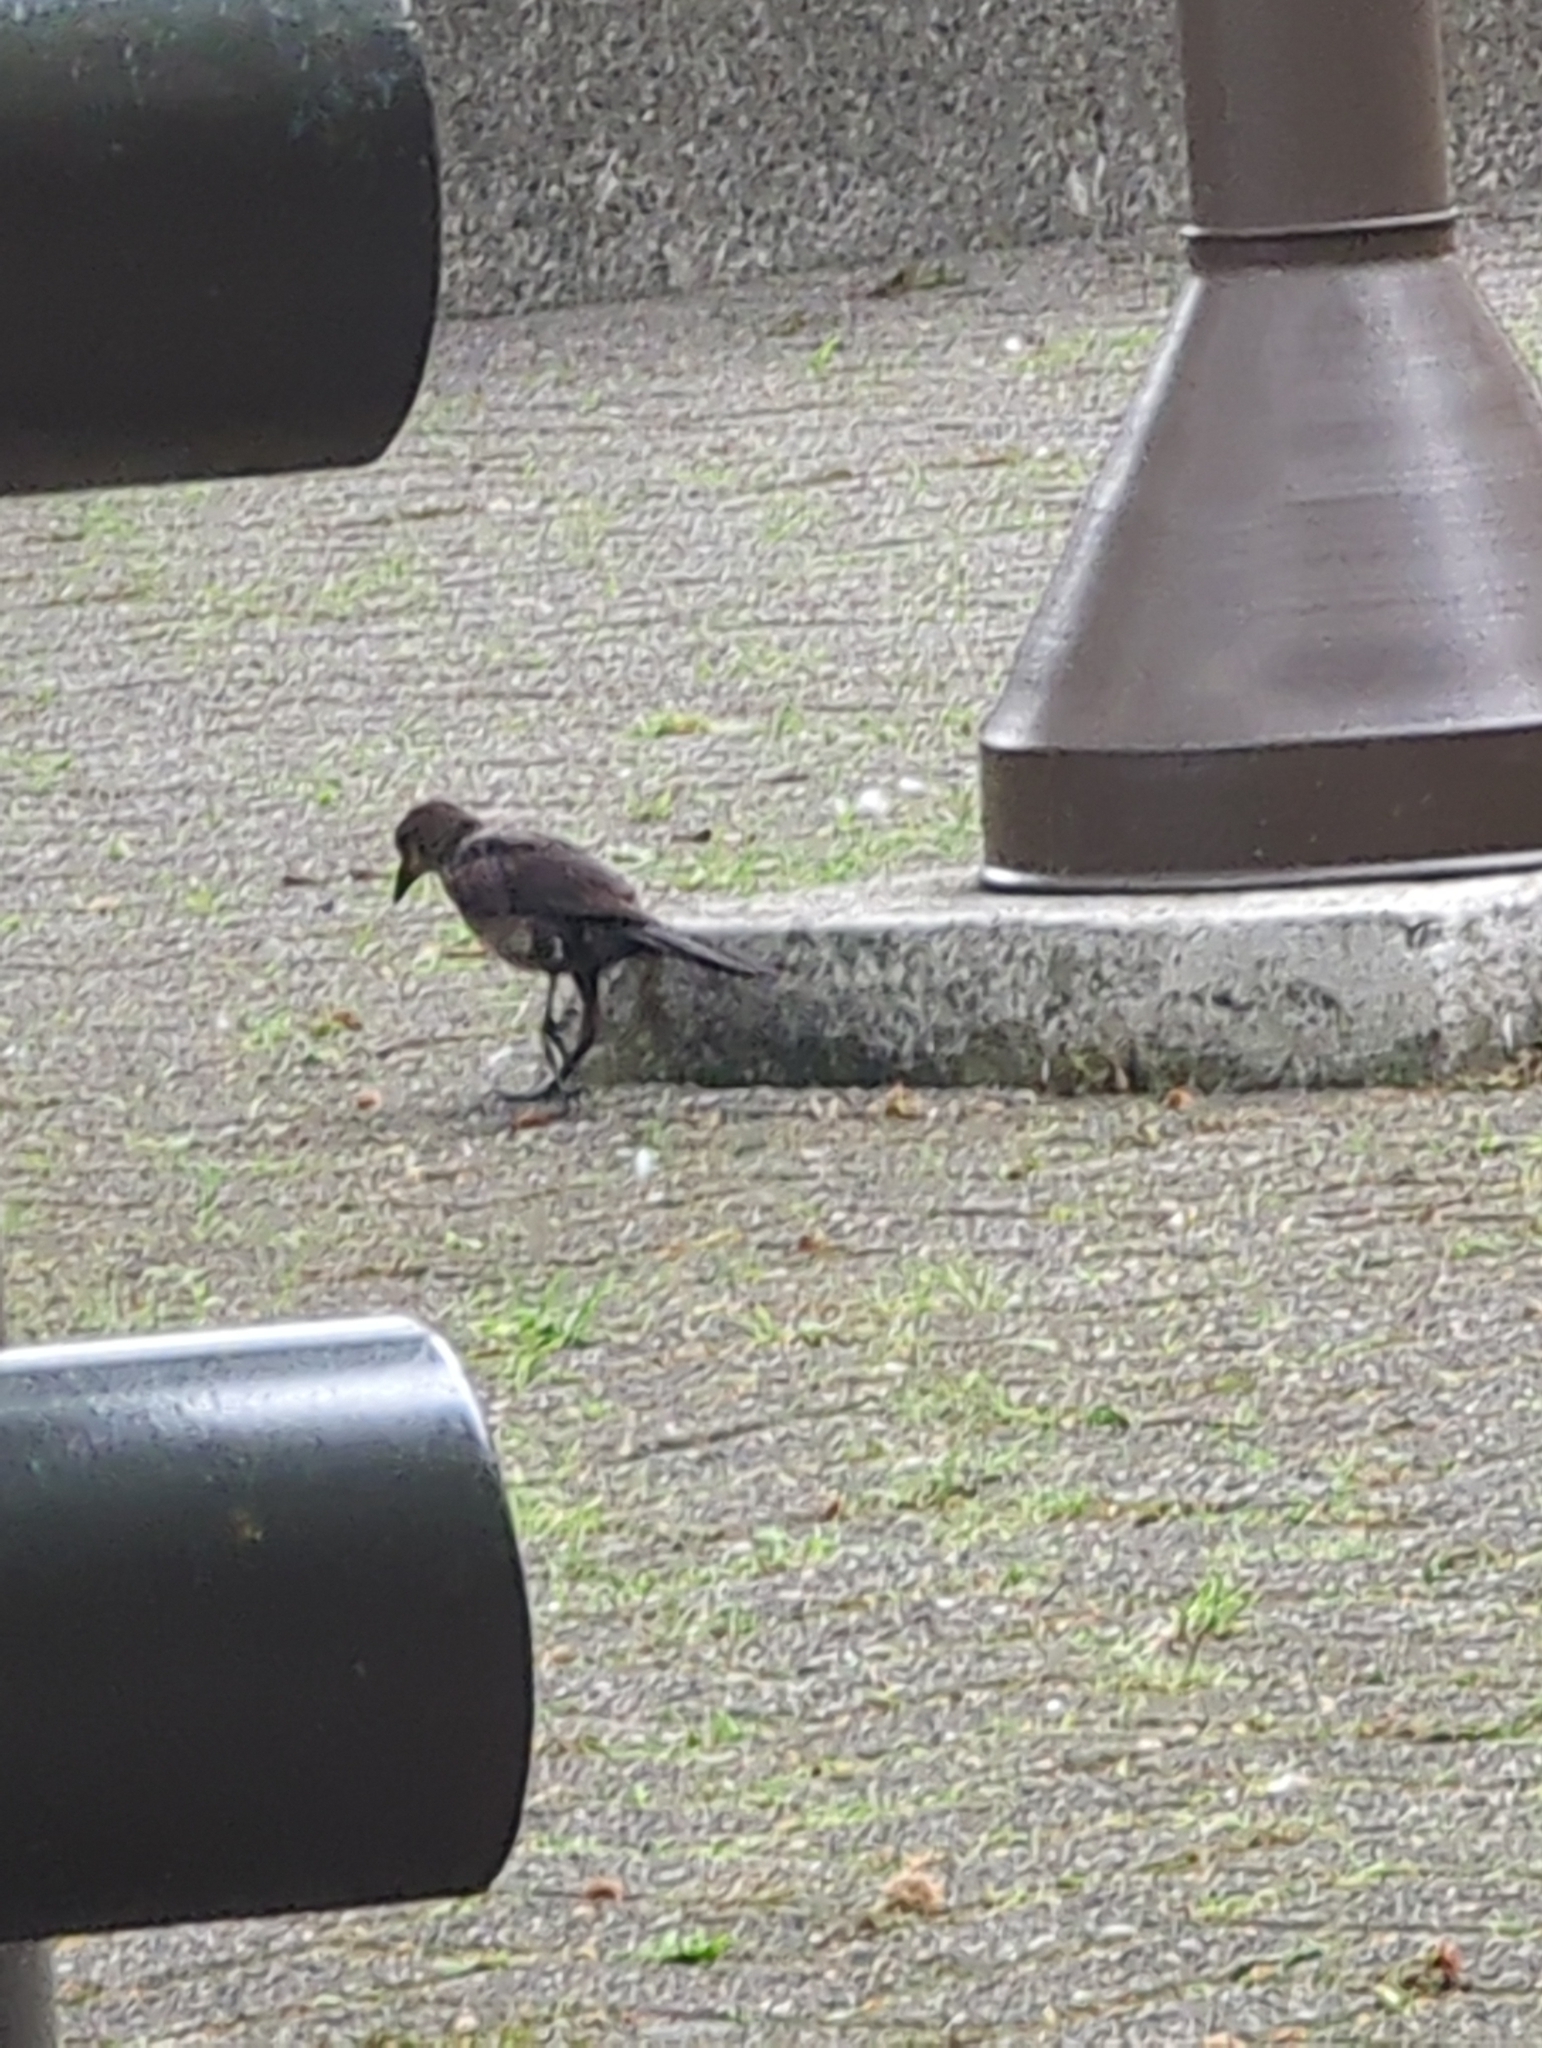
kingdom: Animalia
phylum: Chordata
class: Aves
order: Passeriformes
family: Icteridae
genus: Quiscalus
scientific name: Quiscalus mexicanus
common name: Great-tailed grackle
